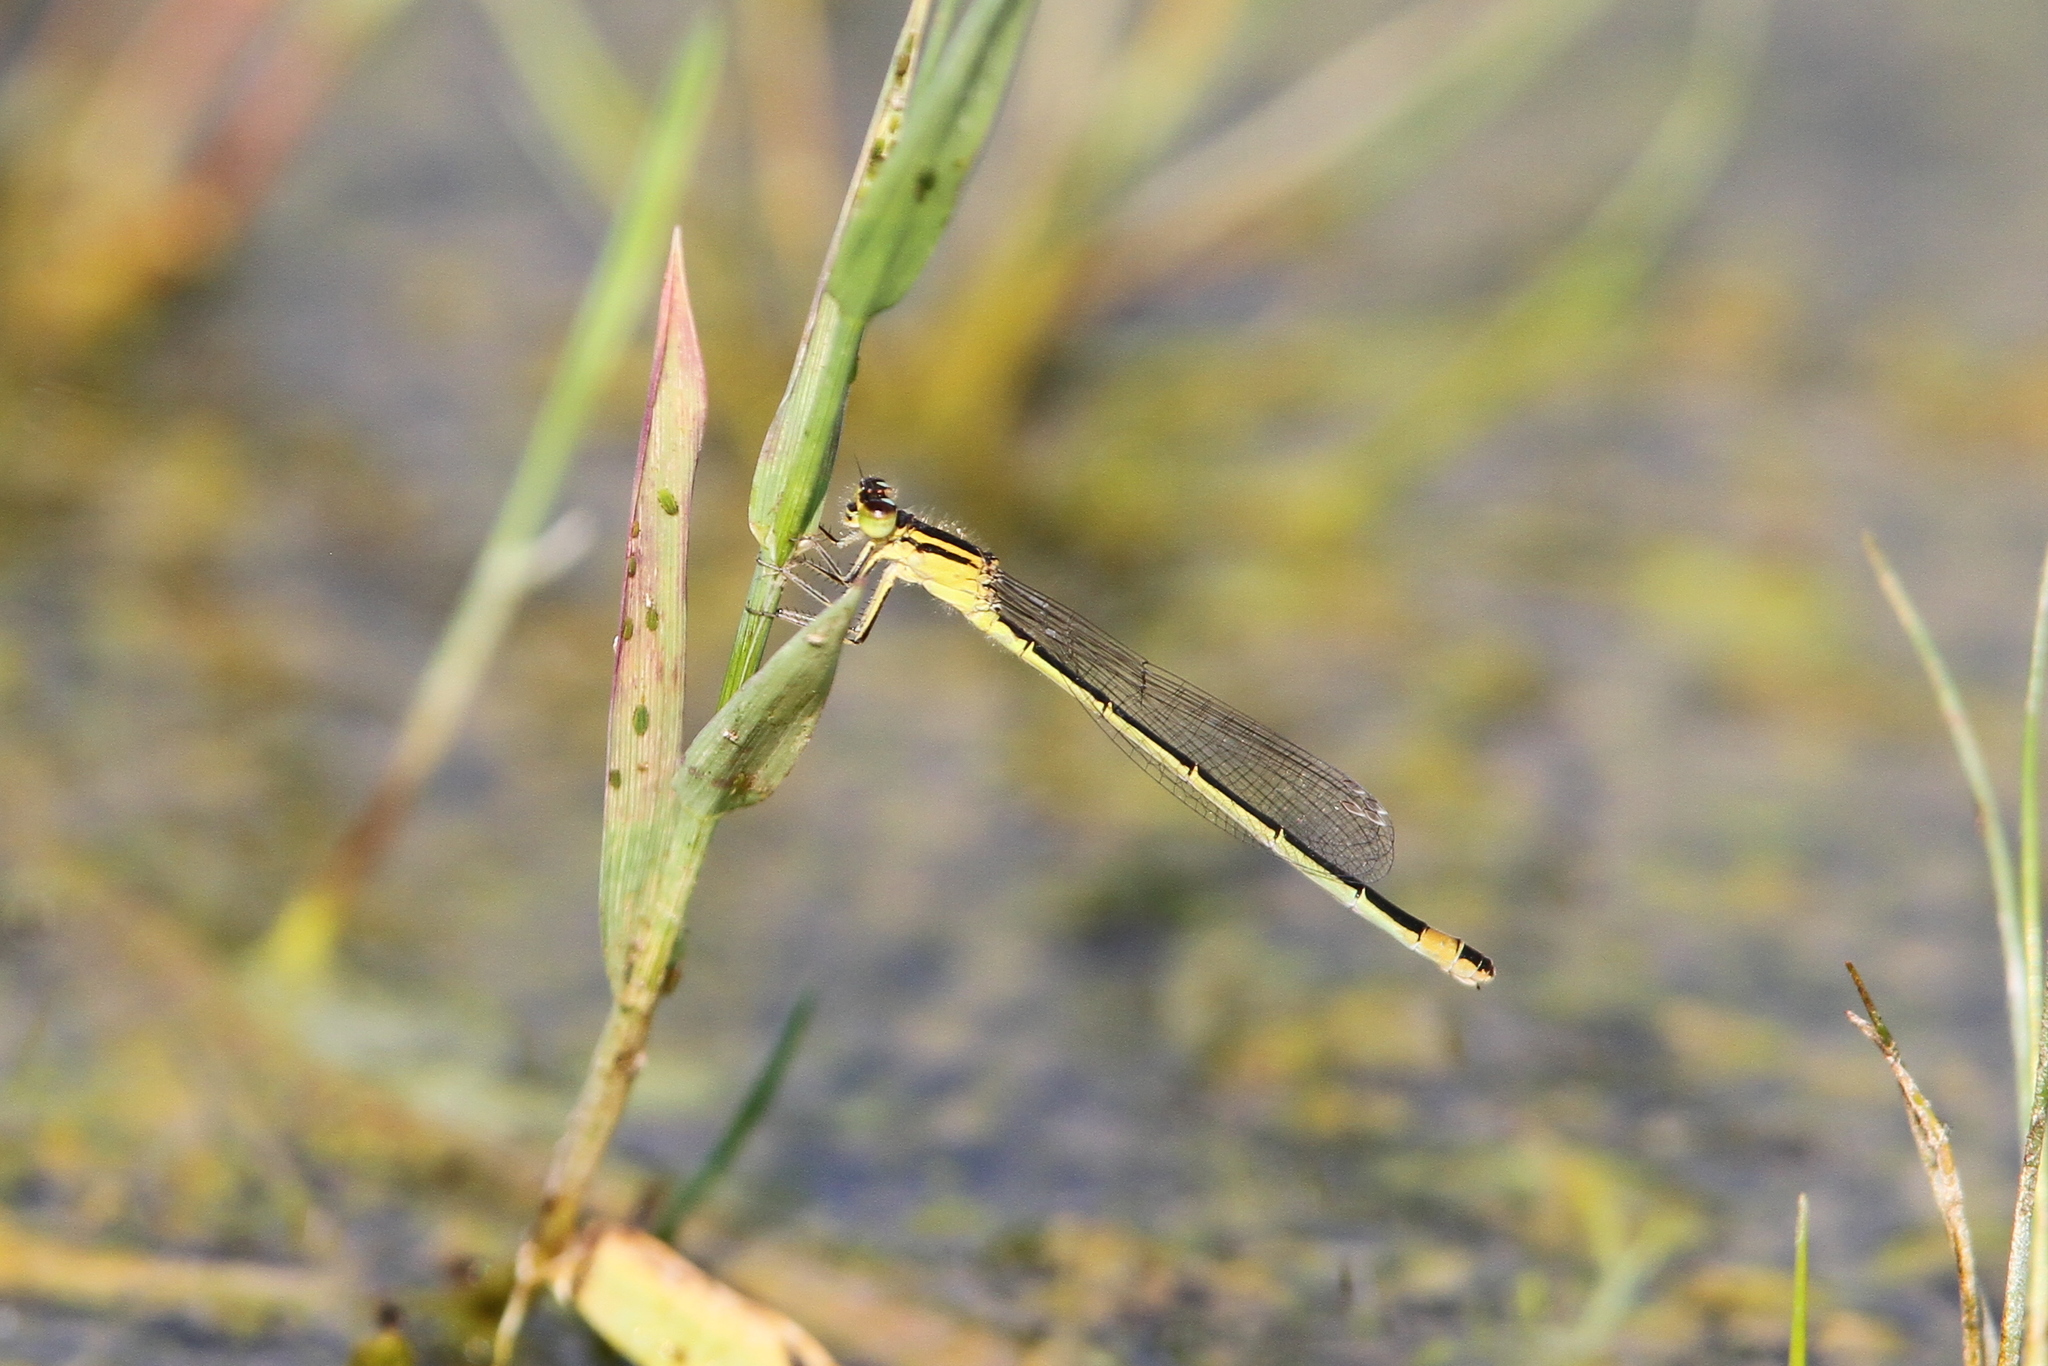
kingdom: Animalia
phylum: Arthropoda
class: Insecta
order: Odonata
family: Coenagrionidae
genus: Ischnura
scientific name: Ischnura elegans
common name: Blue-tailed damselfly
